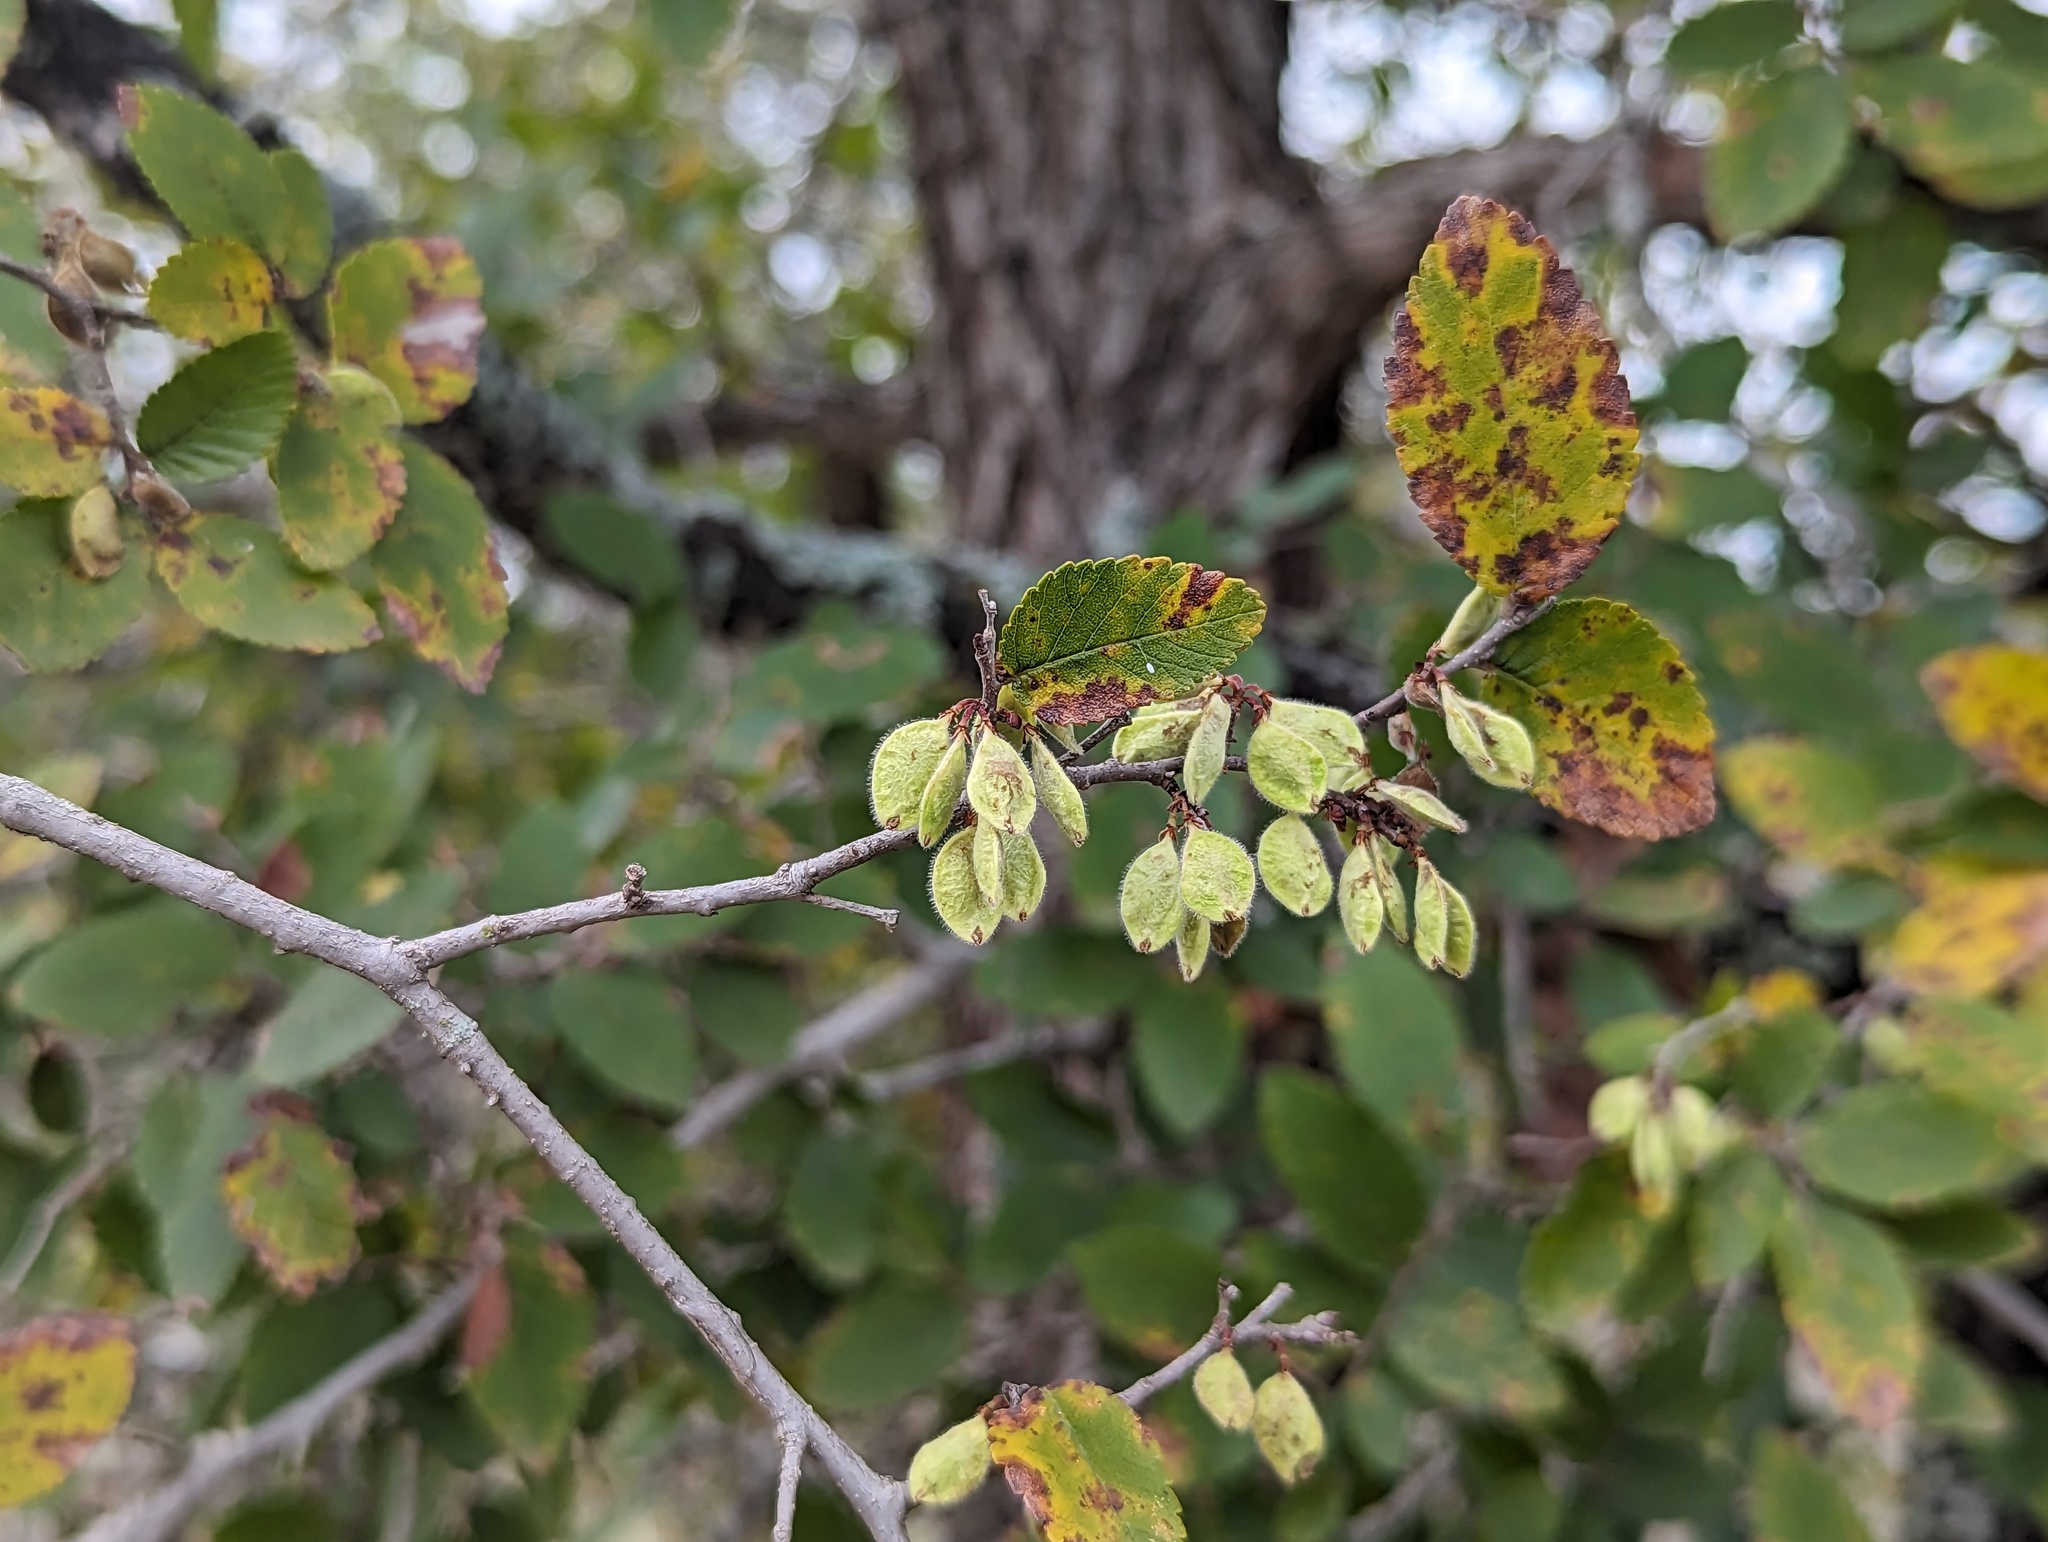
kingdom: Plantae
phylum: Tracheophyta
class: Magnoliopsida
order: Rosales
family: Ulmaceae
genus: Ulmus
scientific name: Ulmus crassifolia
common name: Basket elm
